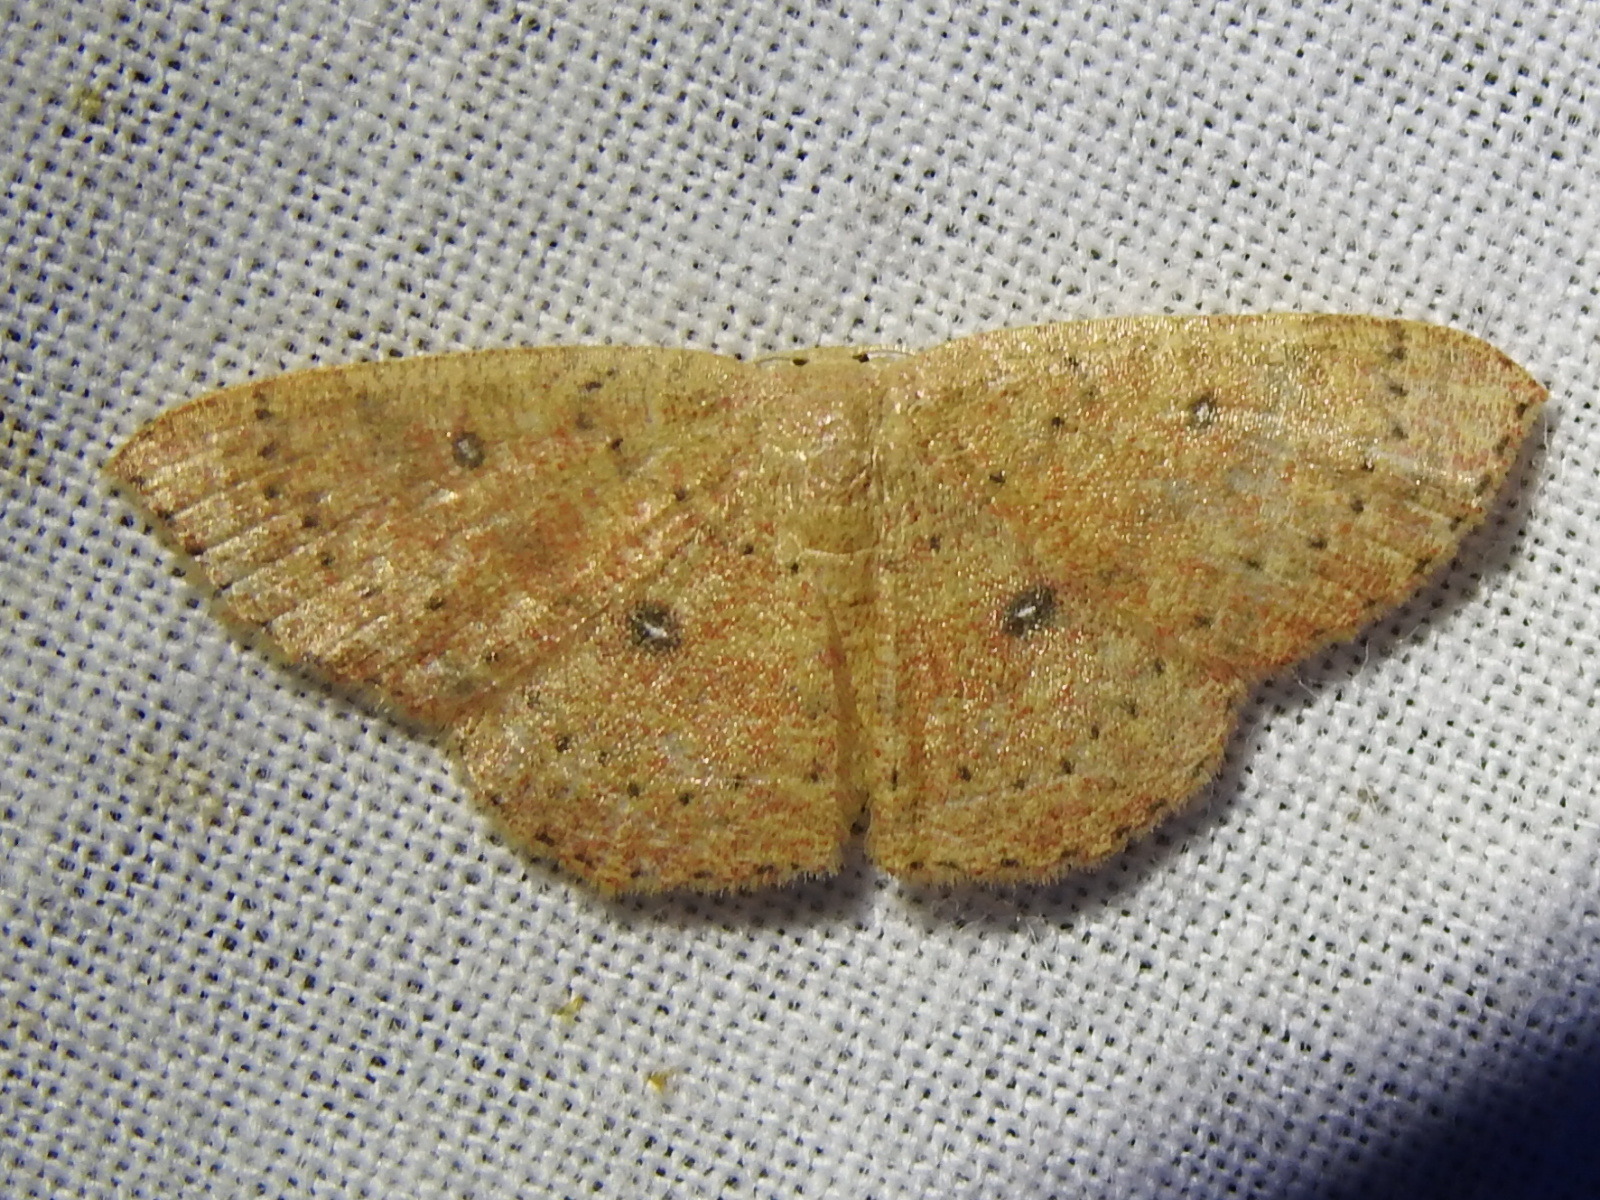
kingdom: Animalia
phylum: Arthropoda
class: Insecta
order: Lepidoptera
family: Geometridae
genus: Cyclophora
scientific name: Cyclophora packardi
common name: Packard's wave
